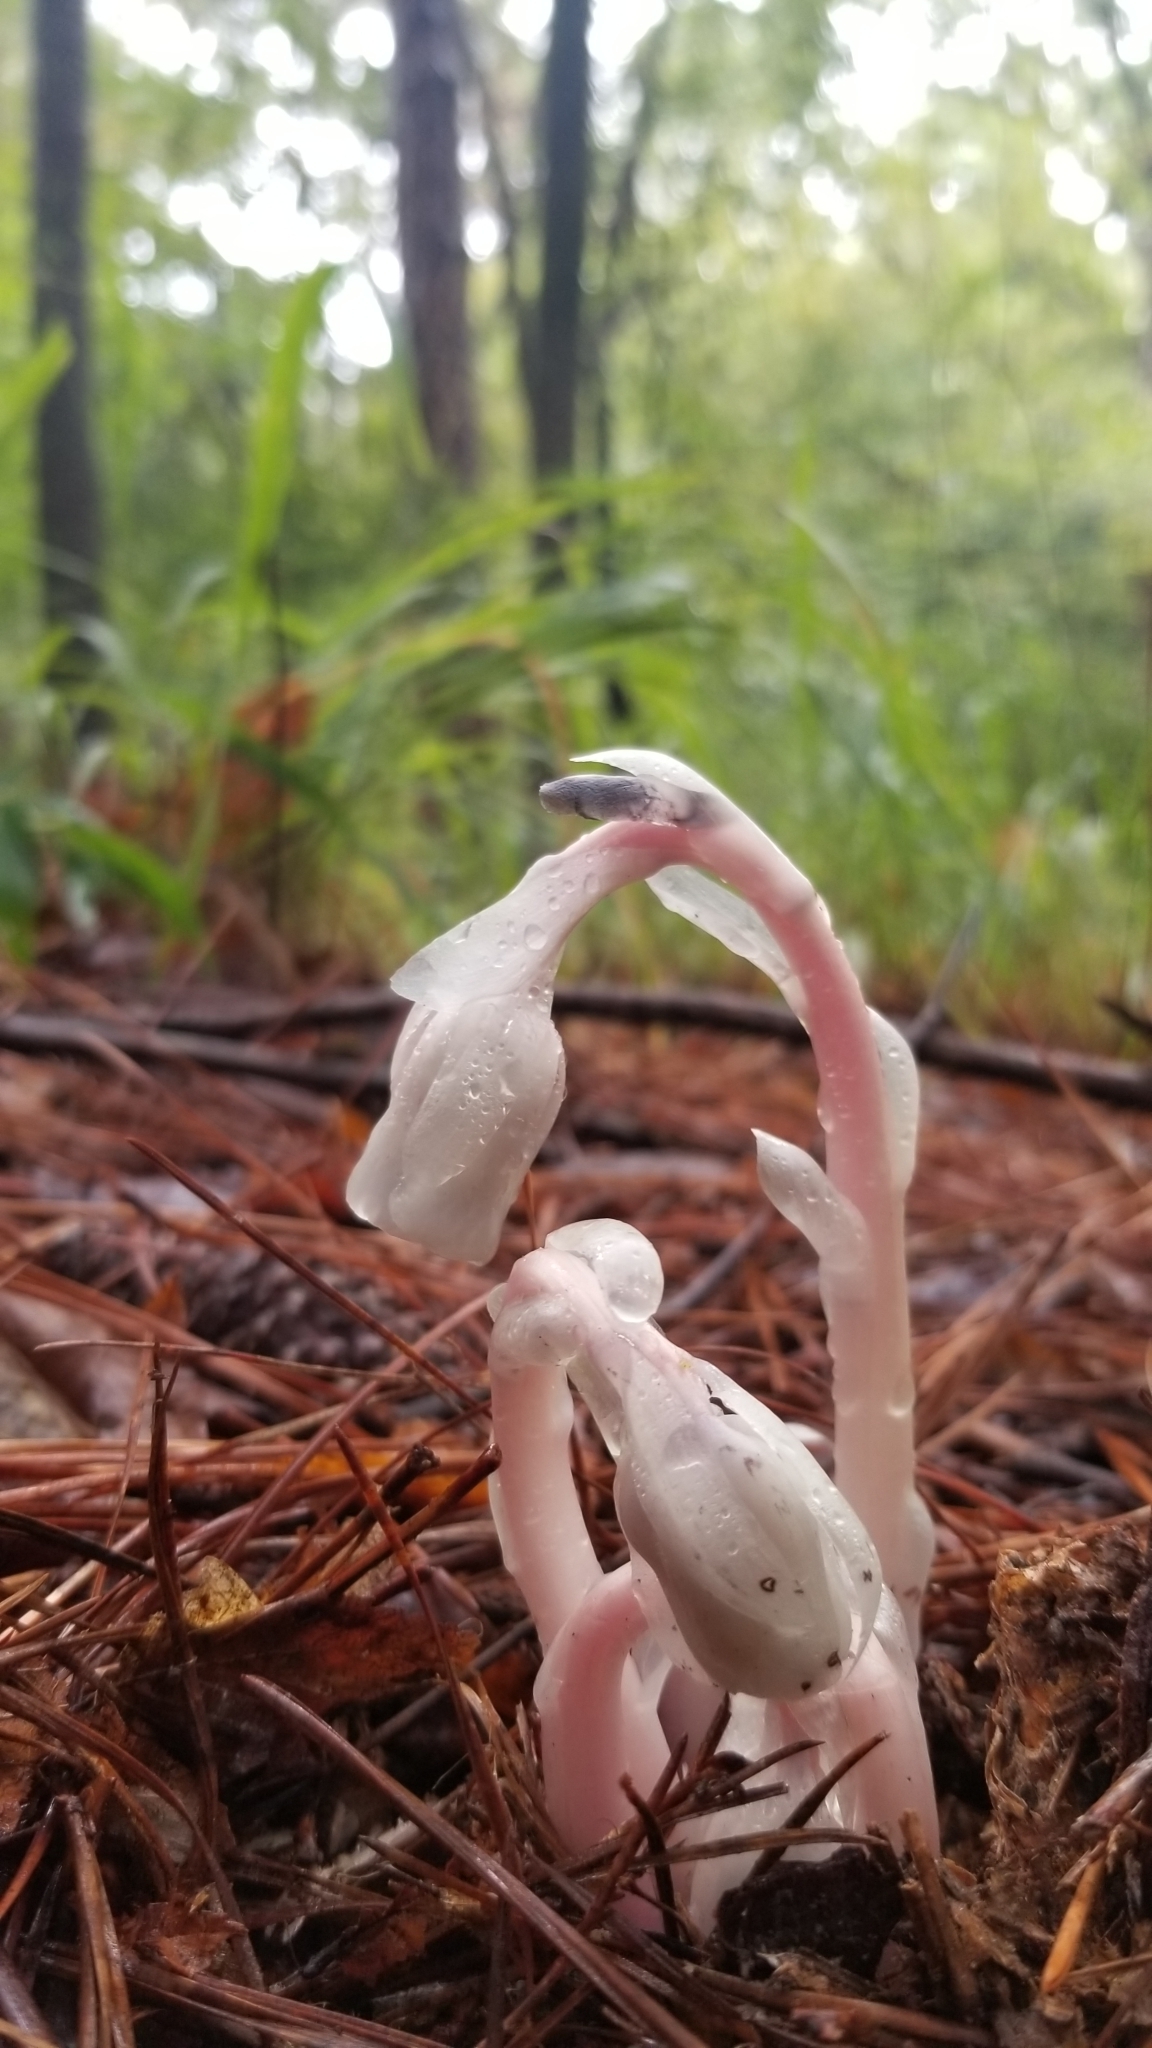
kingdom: Plantae
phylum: Tracheophyta
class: Magnoliopsida
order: Ericales
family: Ericaceae
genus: Monotropa
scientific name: Monotropa uniflora
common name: Convulsion root
